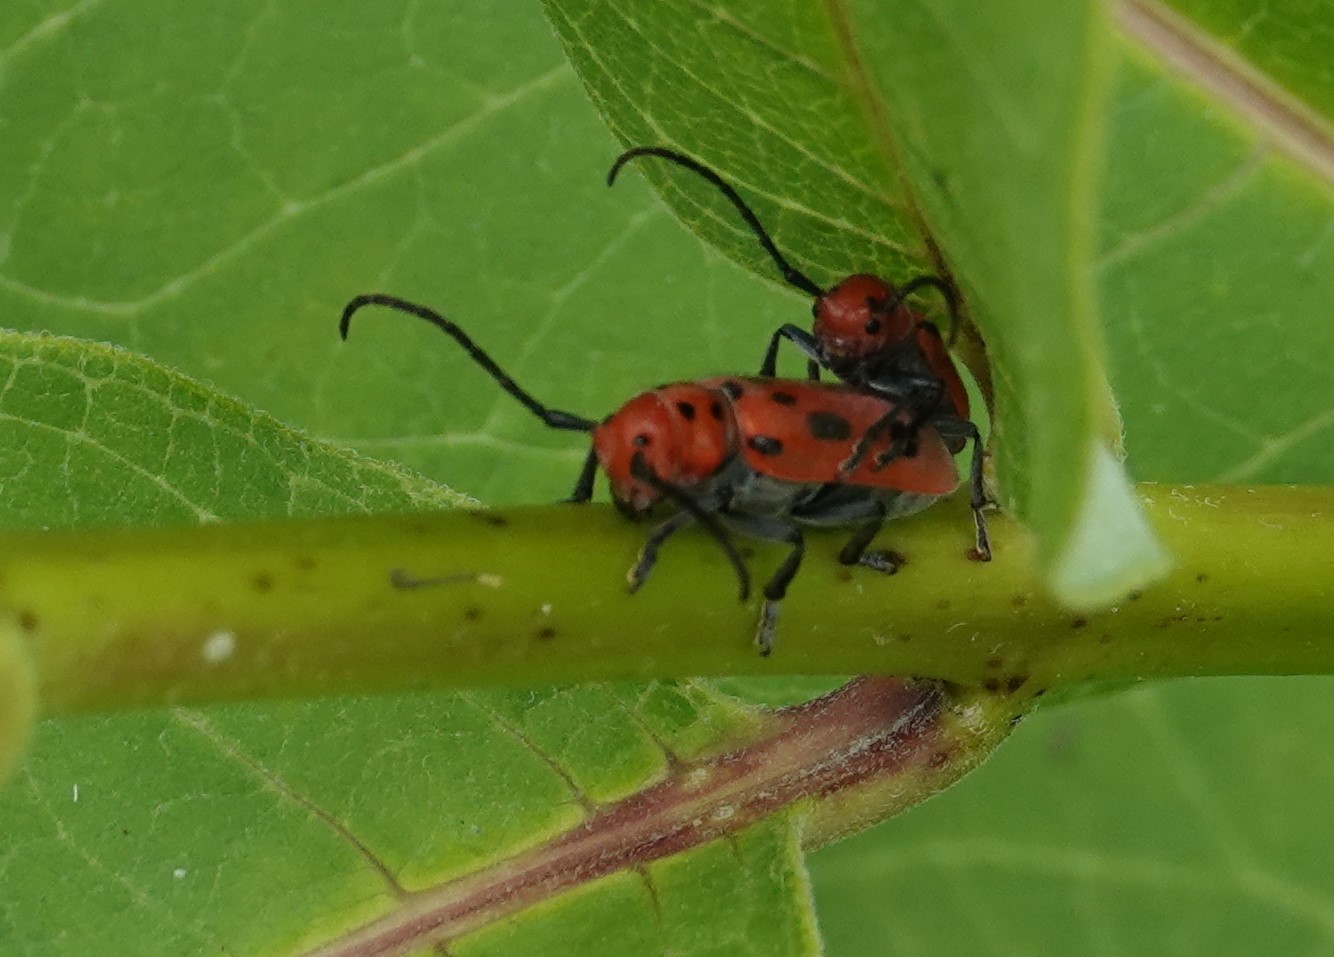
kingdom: Animalia
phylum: Arthropoda
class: Insecta
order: Coleoptera
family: Cerambycidae
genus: Tetraopes
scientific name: Tetraopes tetrophthalmus
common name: Red milkweed beetle
